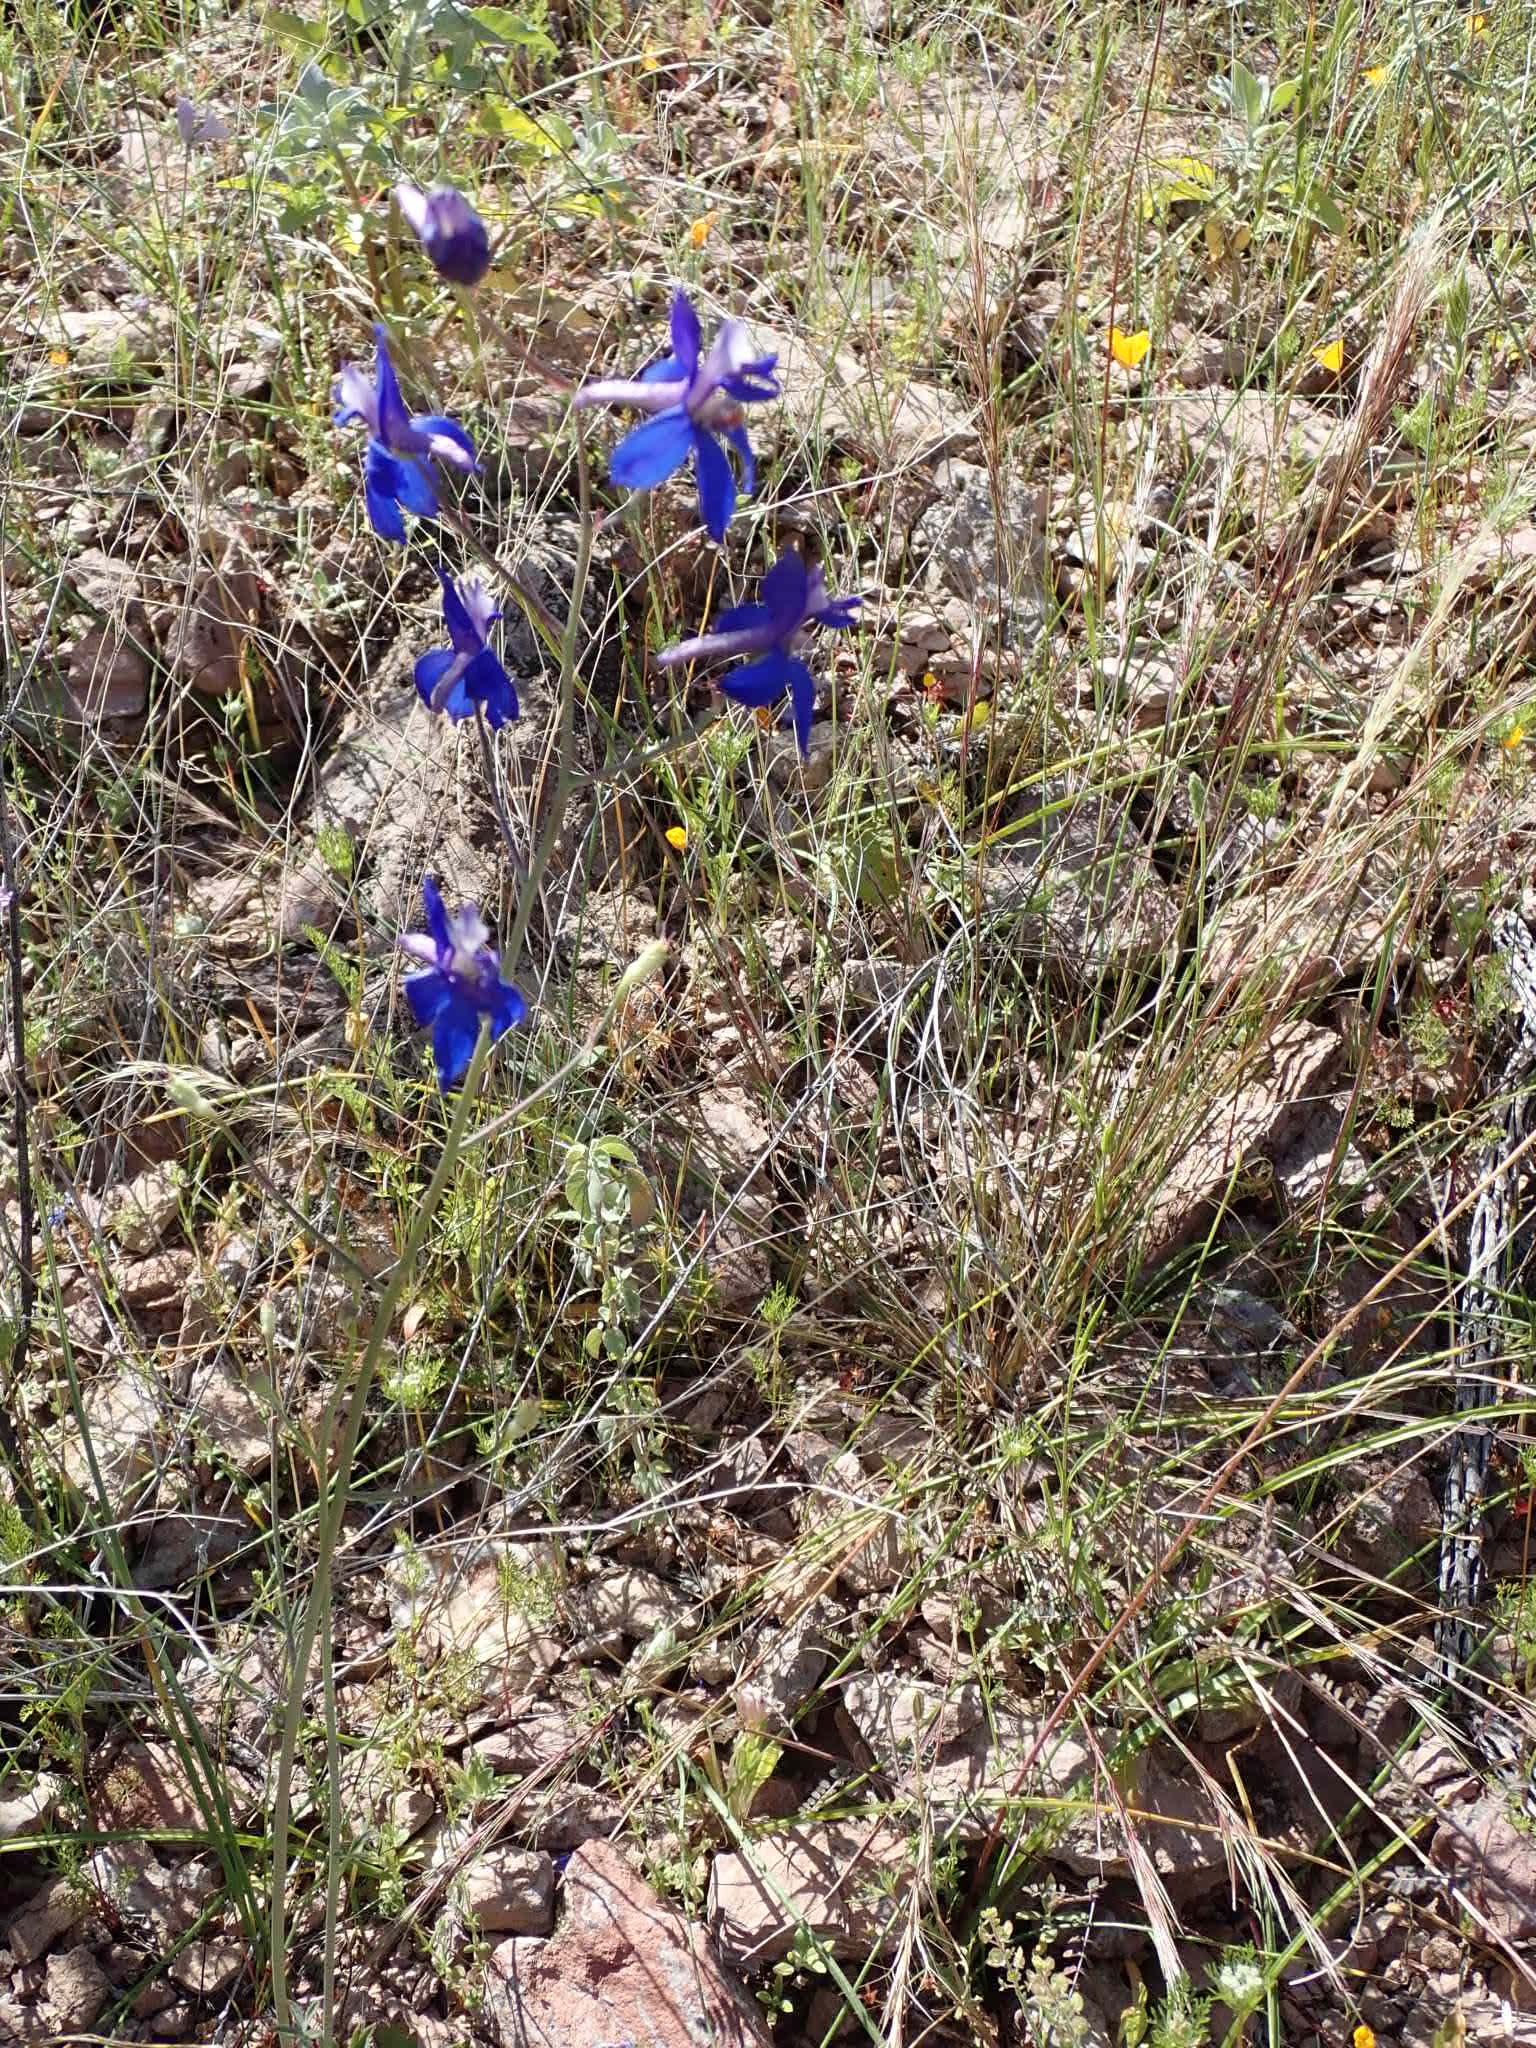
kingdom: Plantae
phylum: Tracheophyta
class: Magnoliopsida
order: Ranunculales
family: Ranunculaceae
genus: Delphinium
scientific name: Delphinium scaposum
